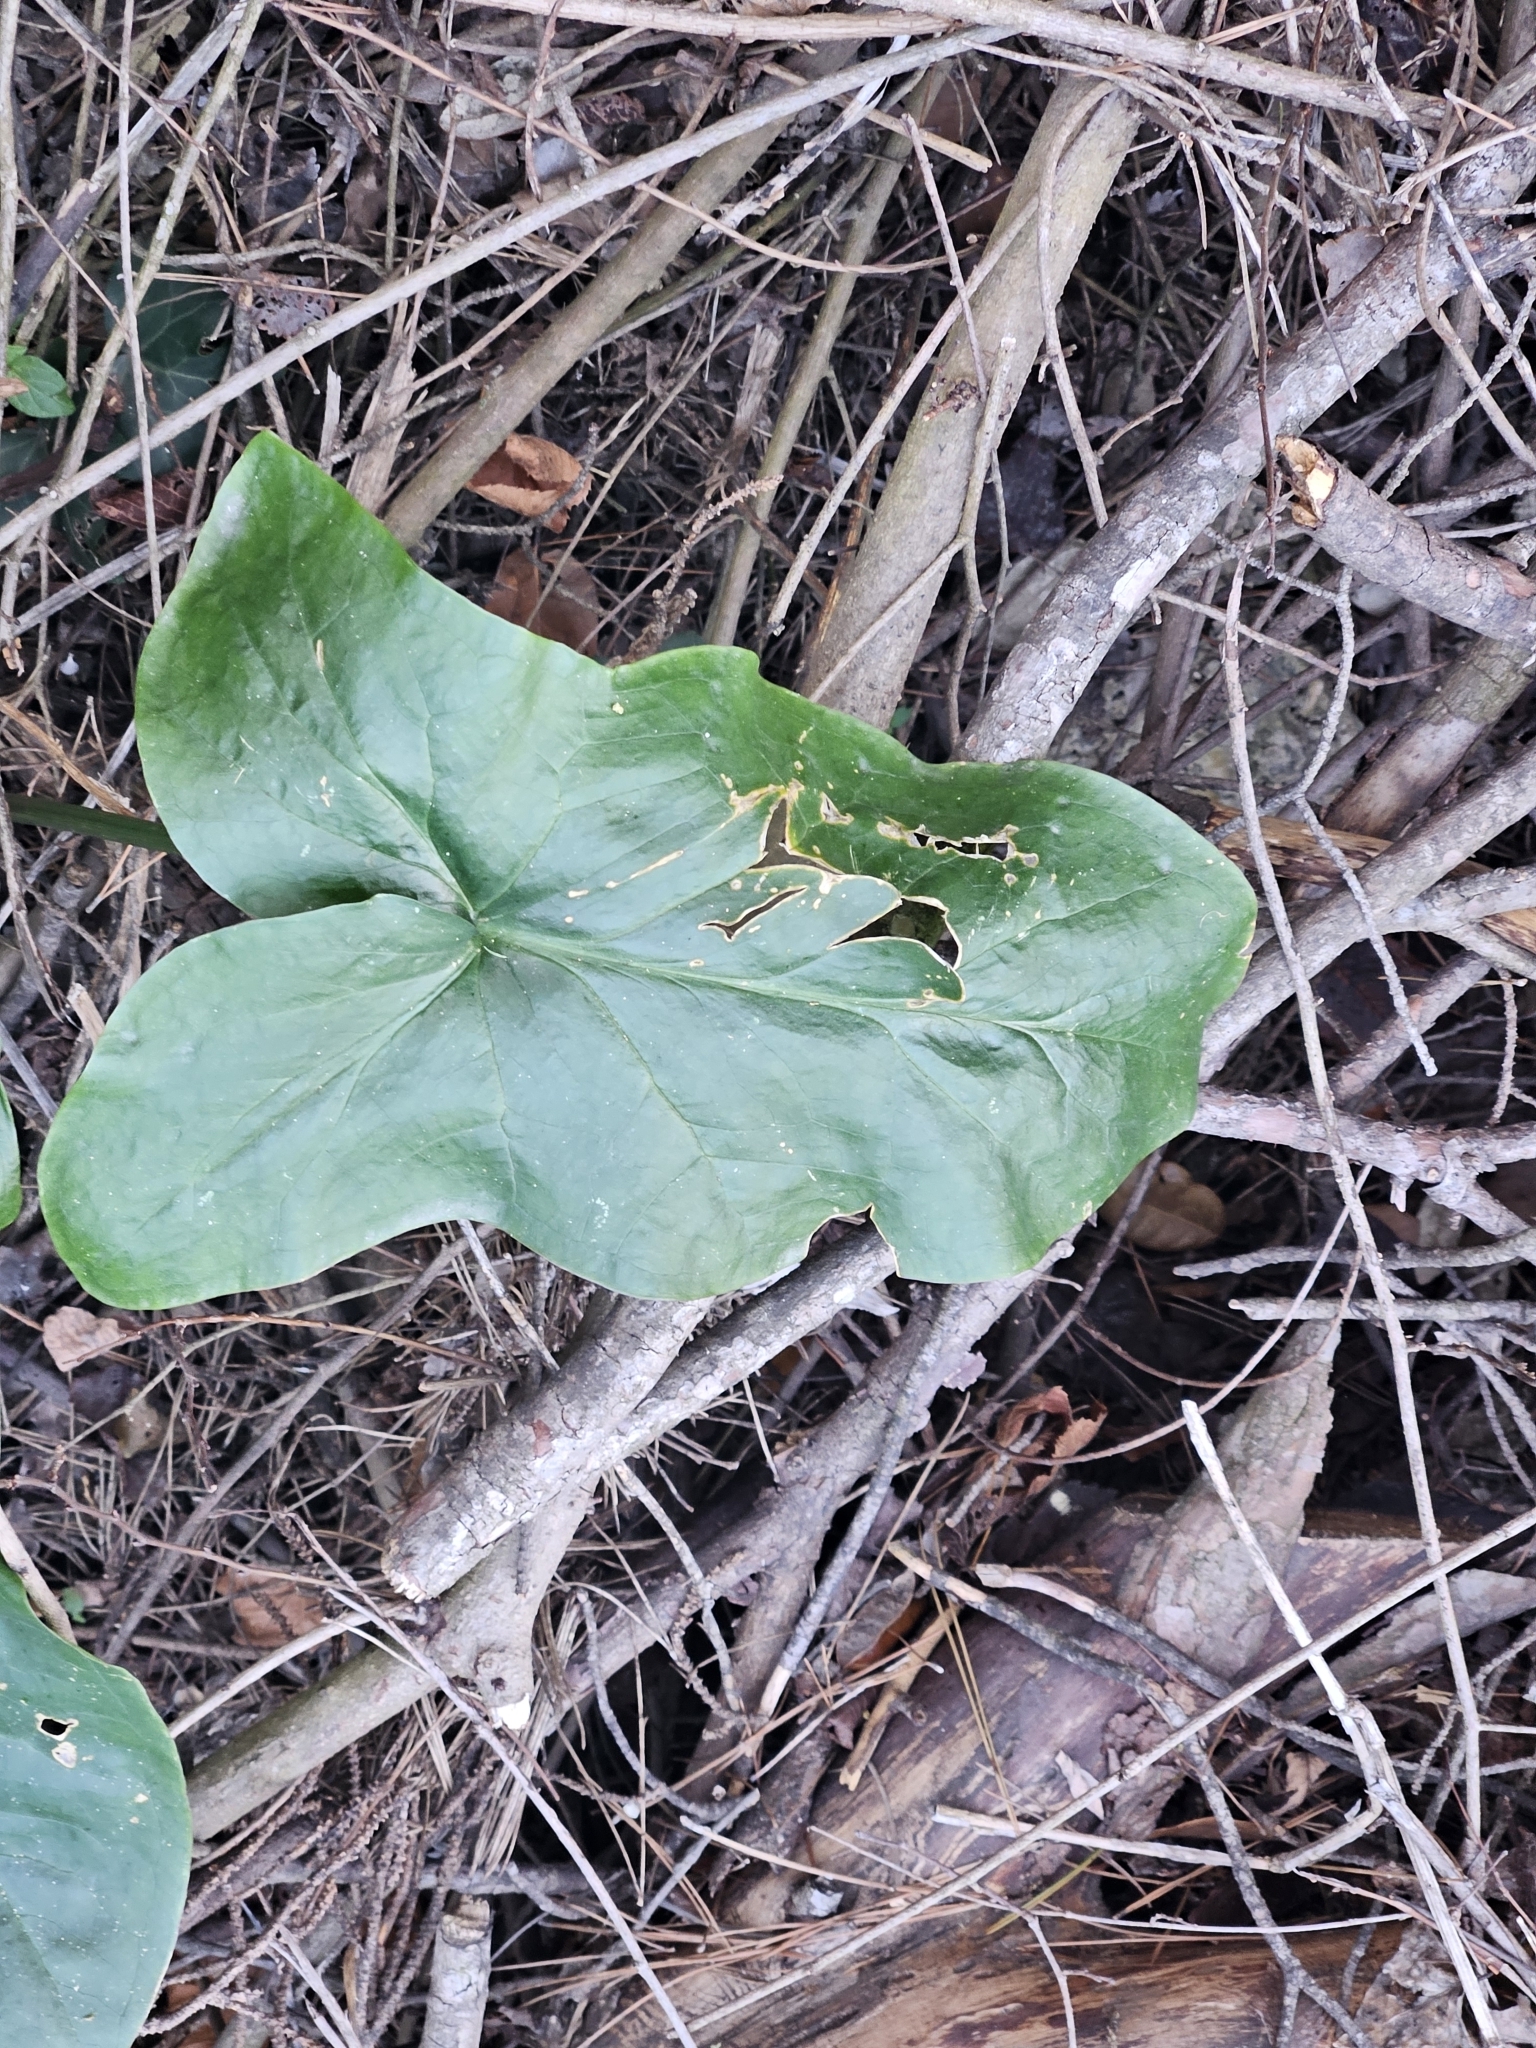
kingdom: Plantae
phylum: Tracheophyta
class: Liliopsida
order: Alismatales
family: Araceae
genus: Arum
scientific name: Arum italicum
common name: Italian lords-and-ladies
